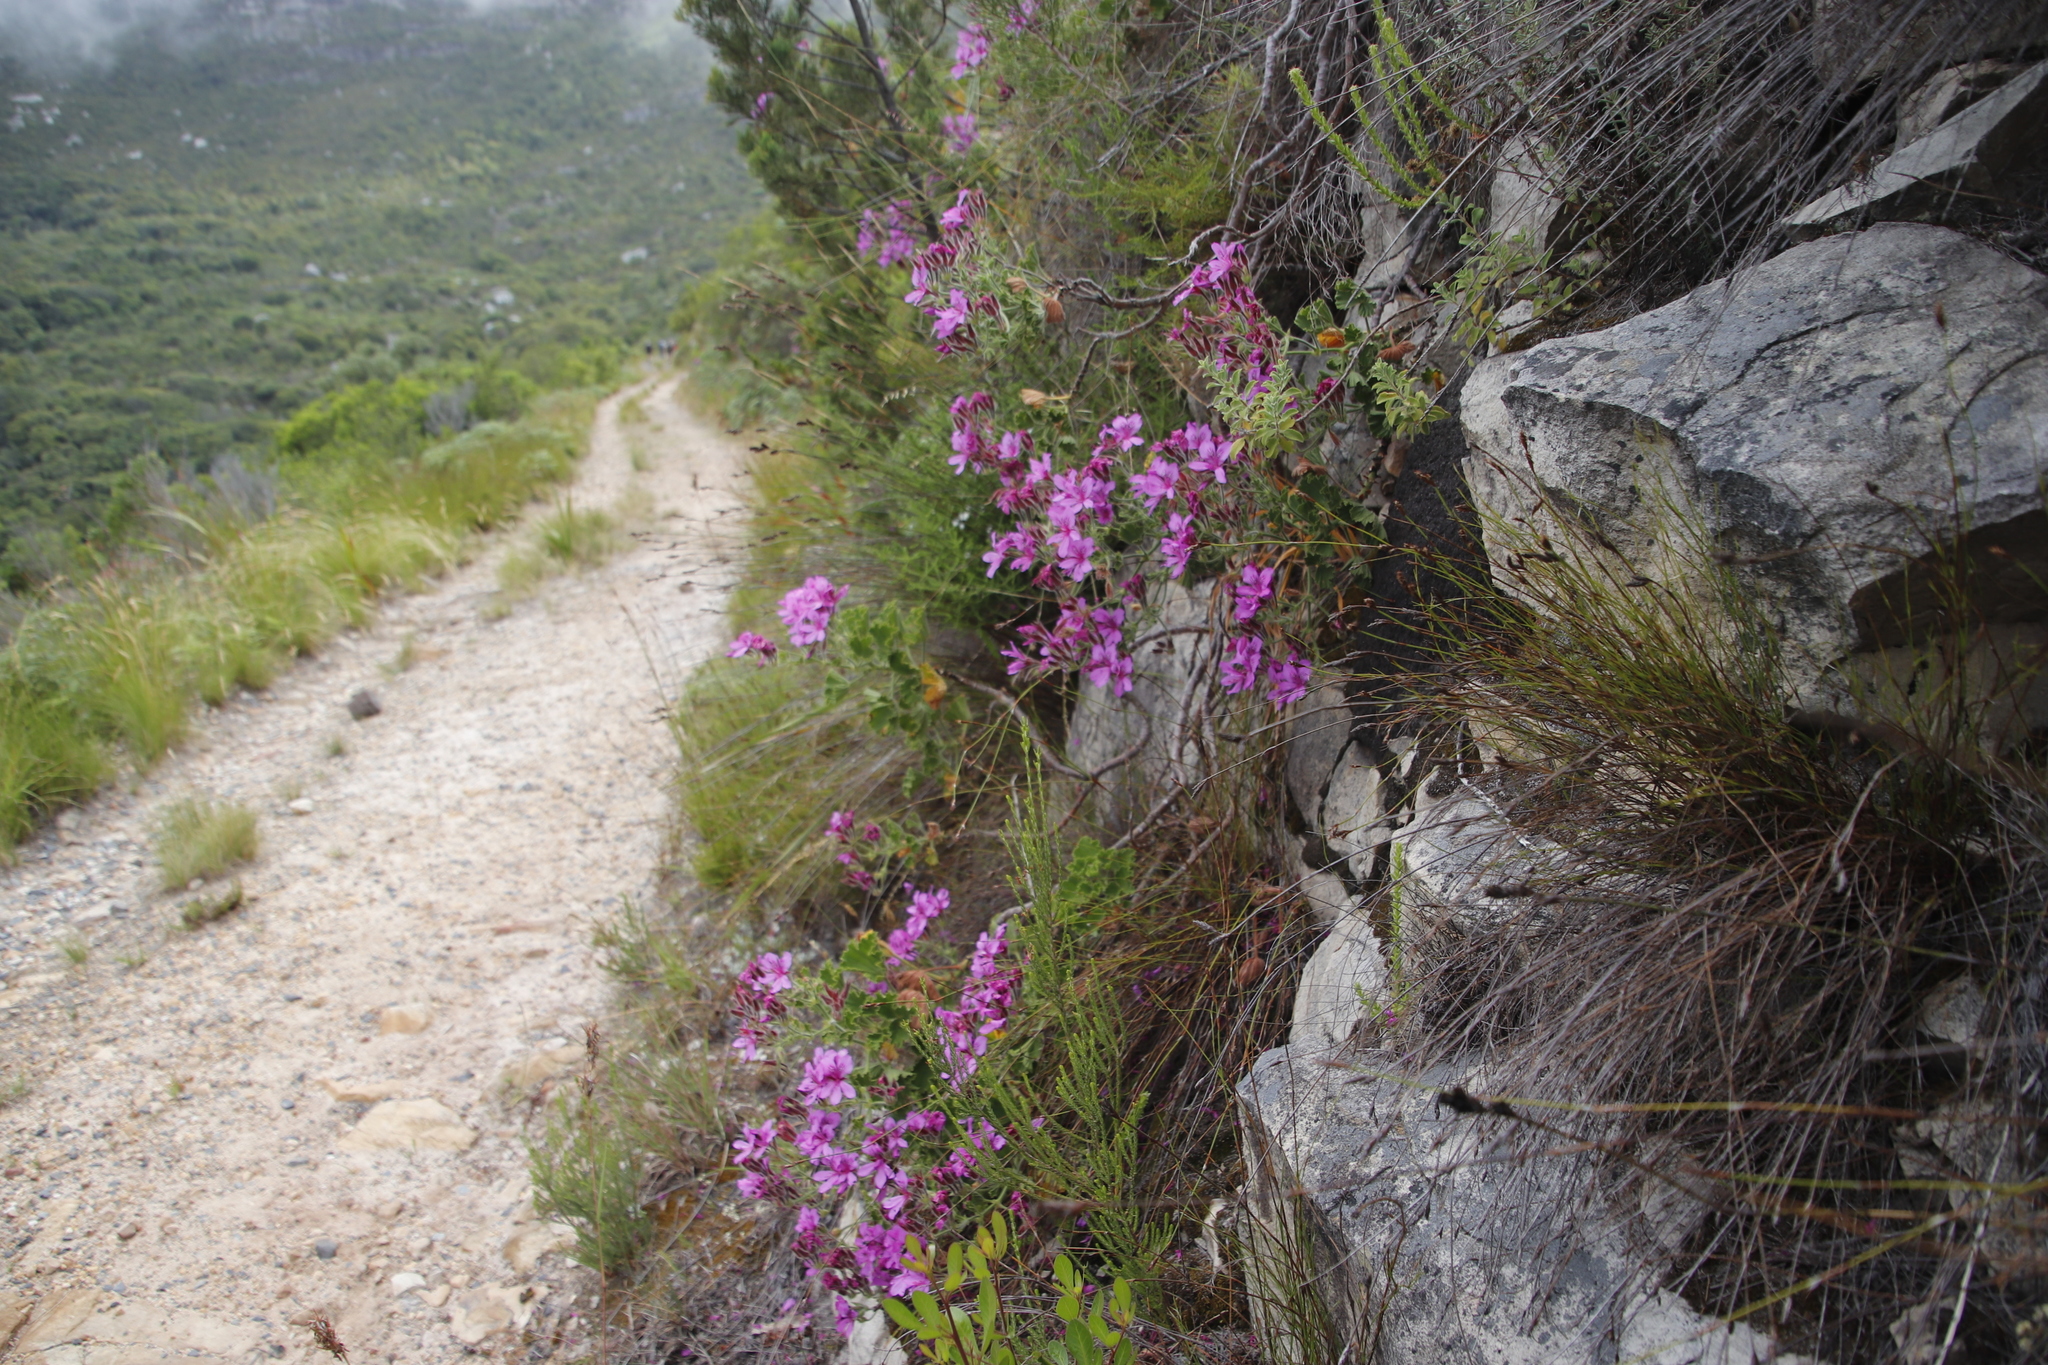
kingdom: Plantae
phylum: Tracheophyta
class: Magnoliopsida
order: Geraniales
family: Geraniaceae
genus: Pelargonium
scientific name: Pelargonium cucullatum
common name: Tree pelargonium
